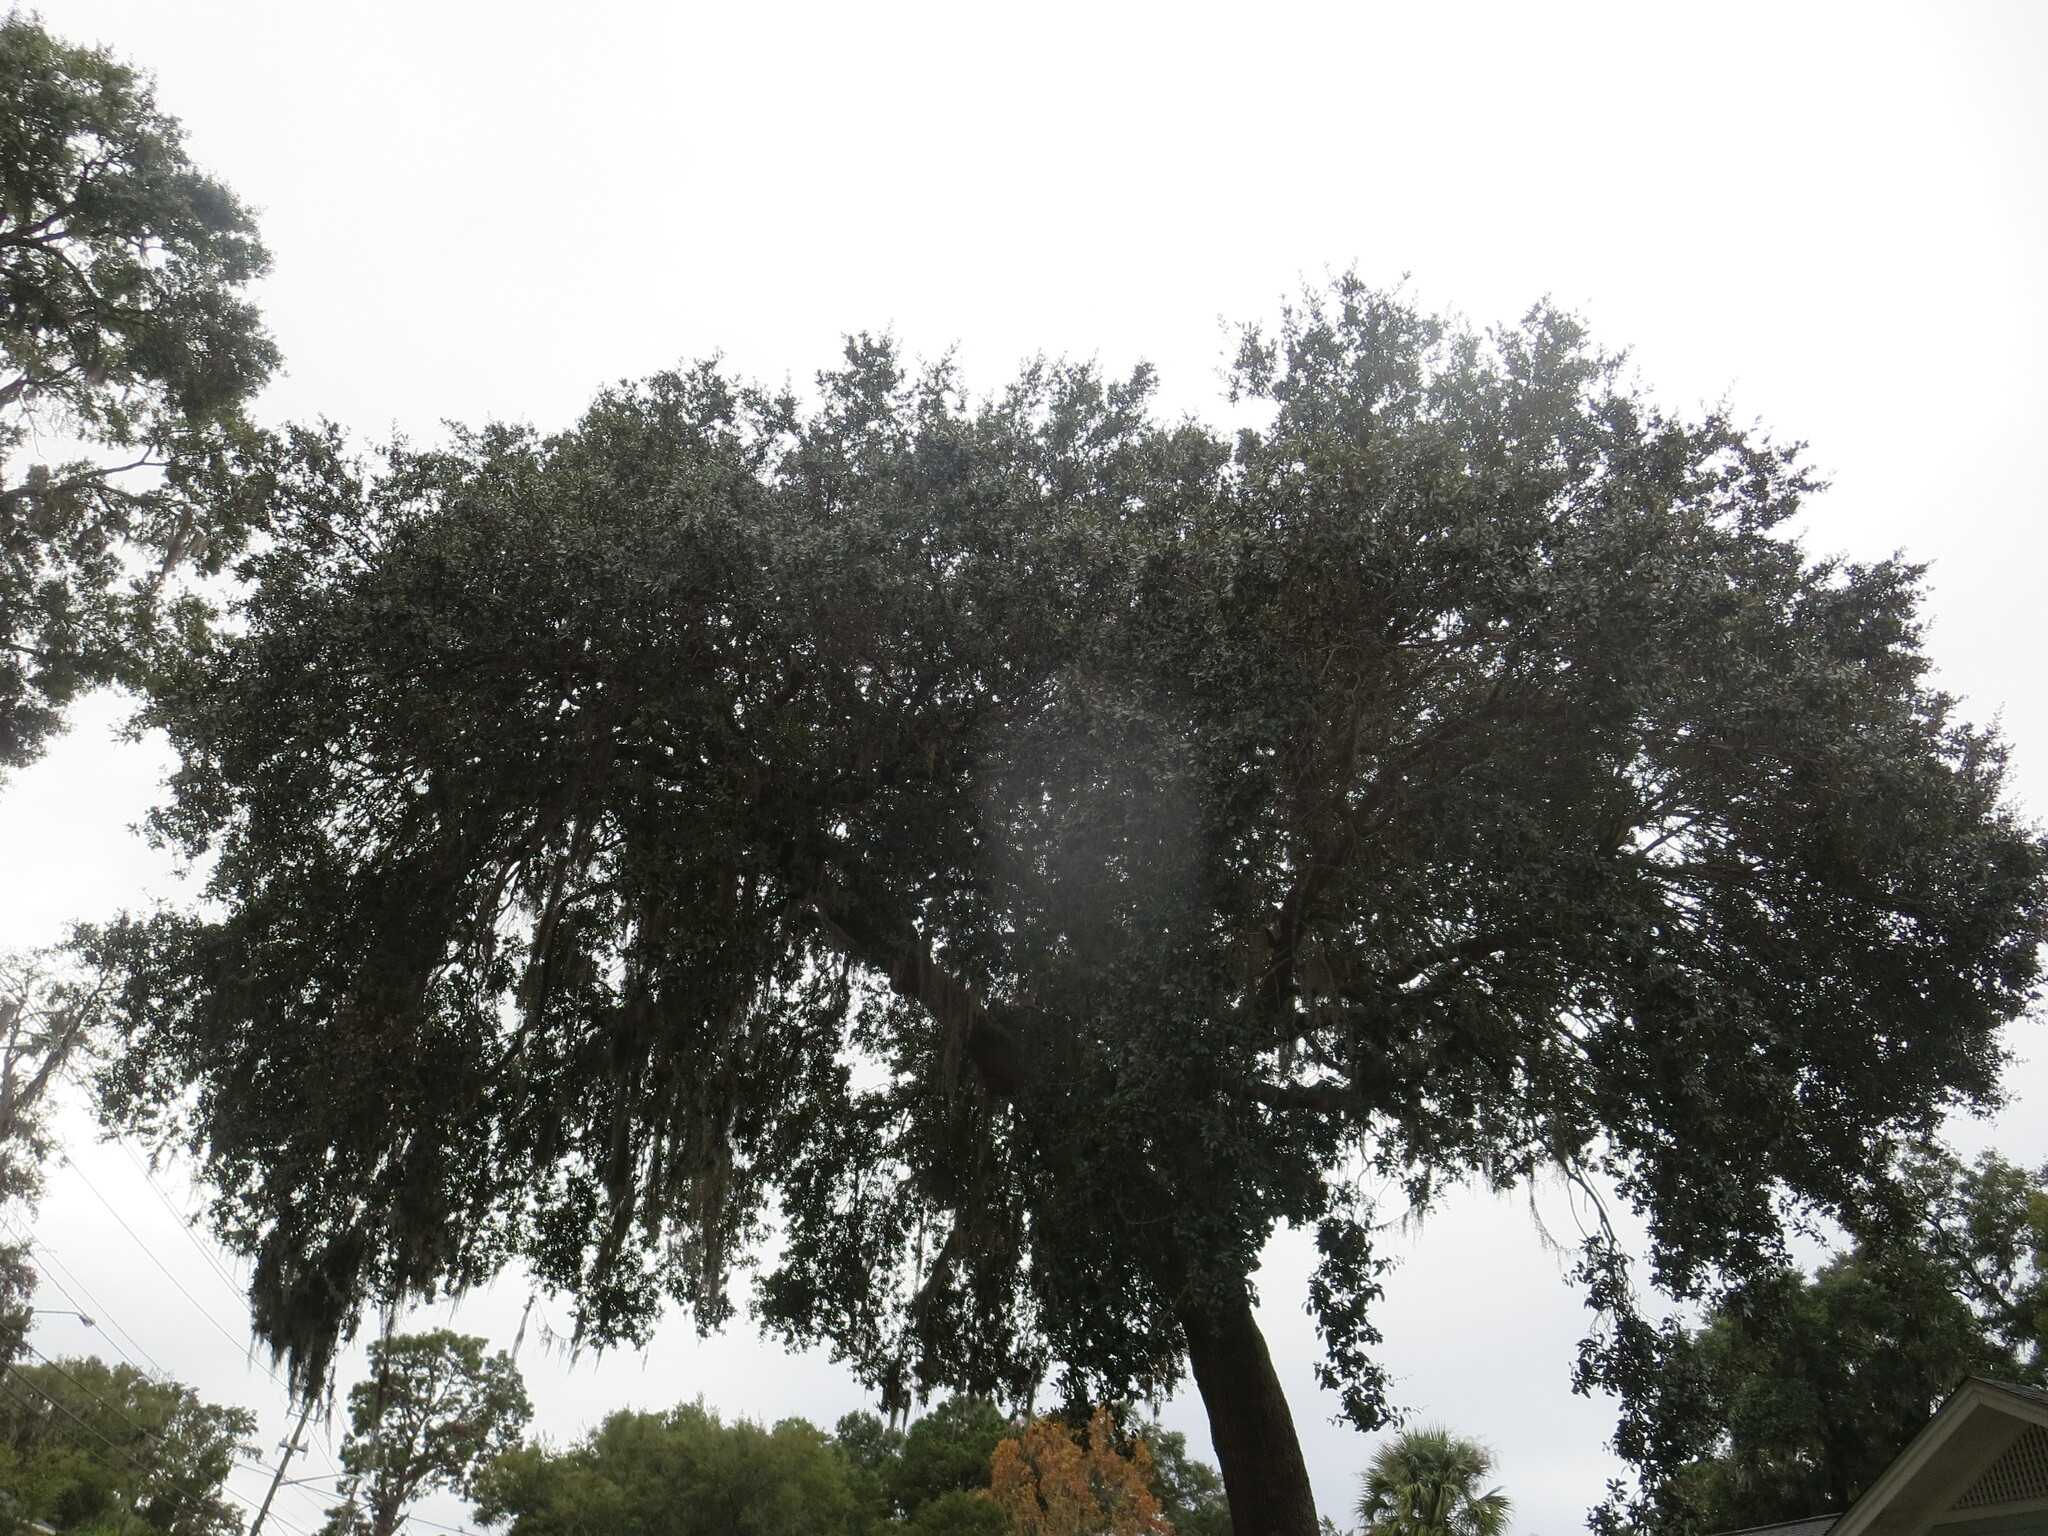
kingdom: Plantae
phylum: Tracheophyta
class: Magnoliopsida
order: Fagales
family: Fagaceae
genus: Quercus
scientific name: Quercus virginiana
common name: Southern live oak
